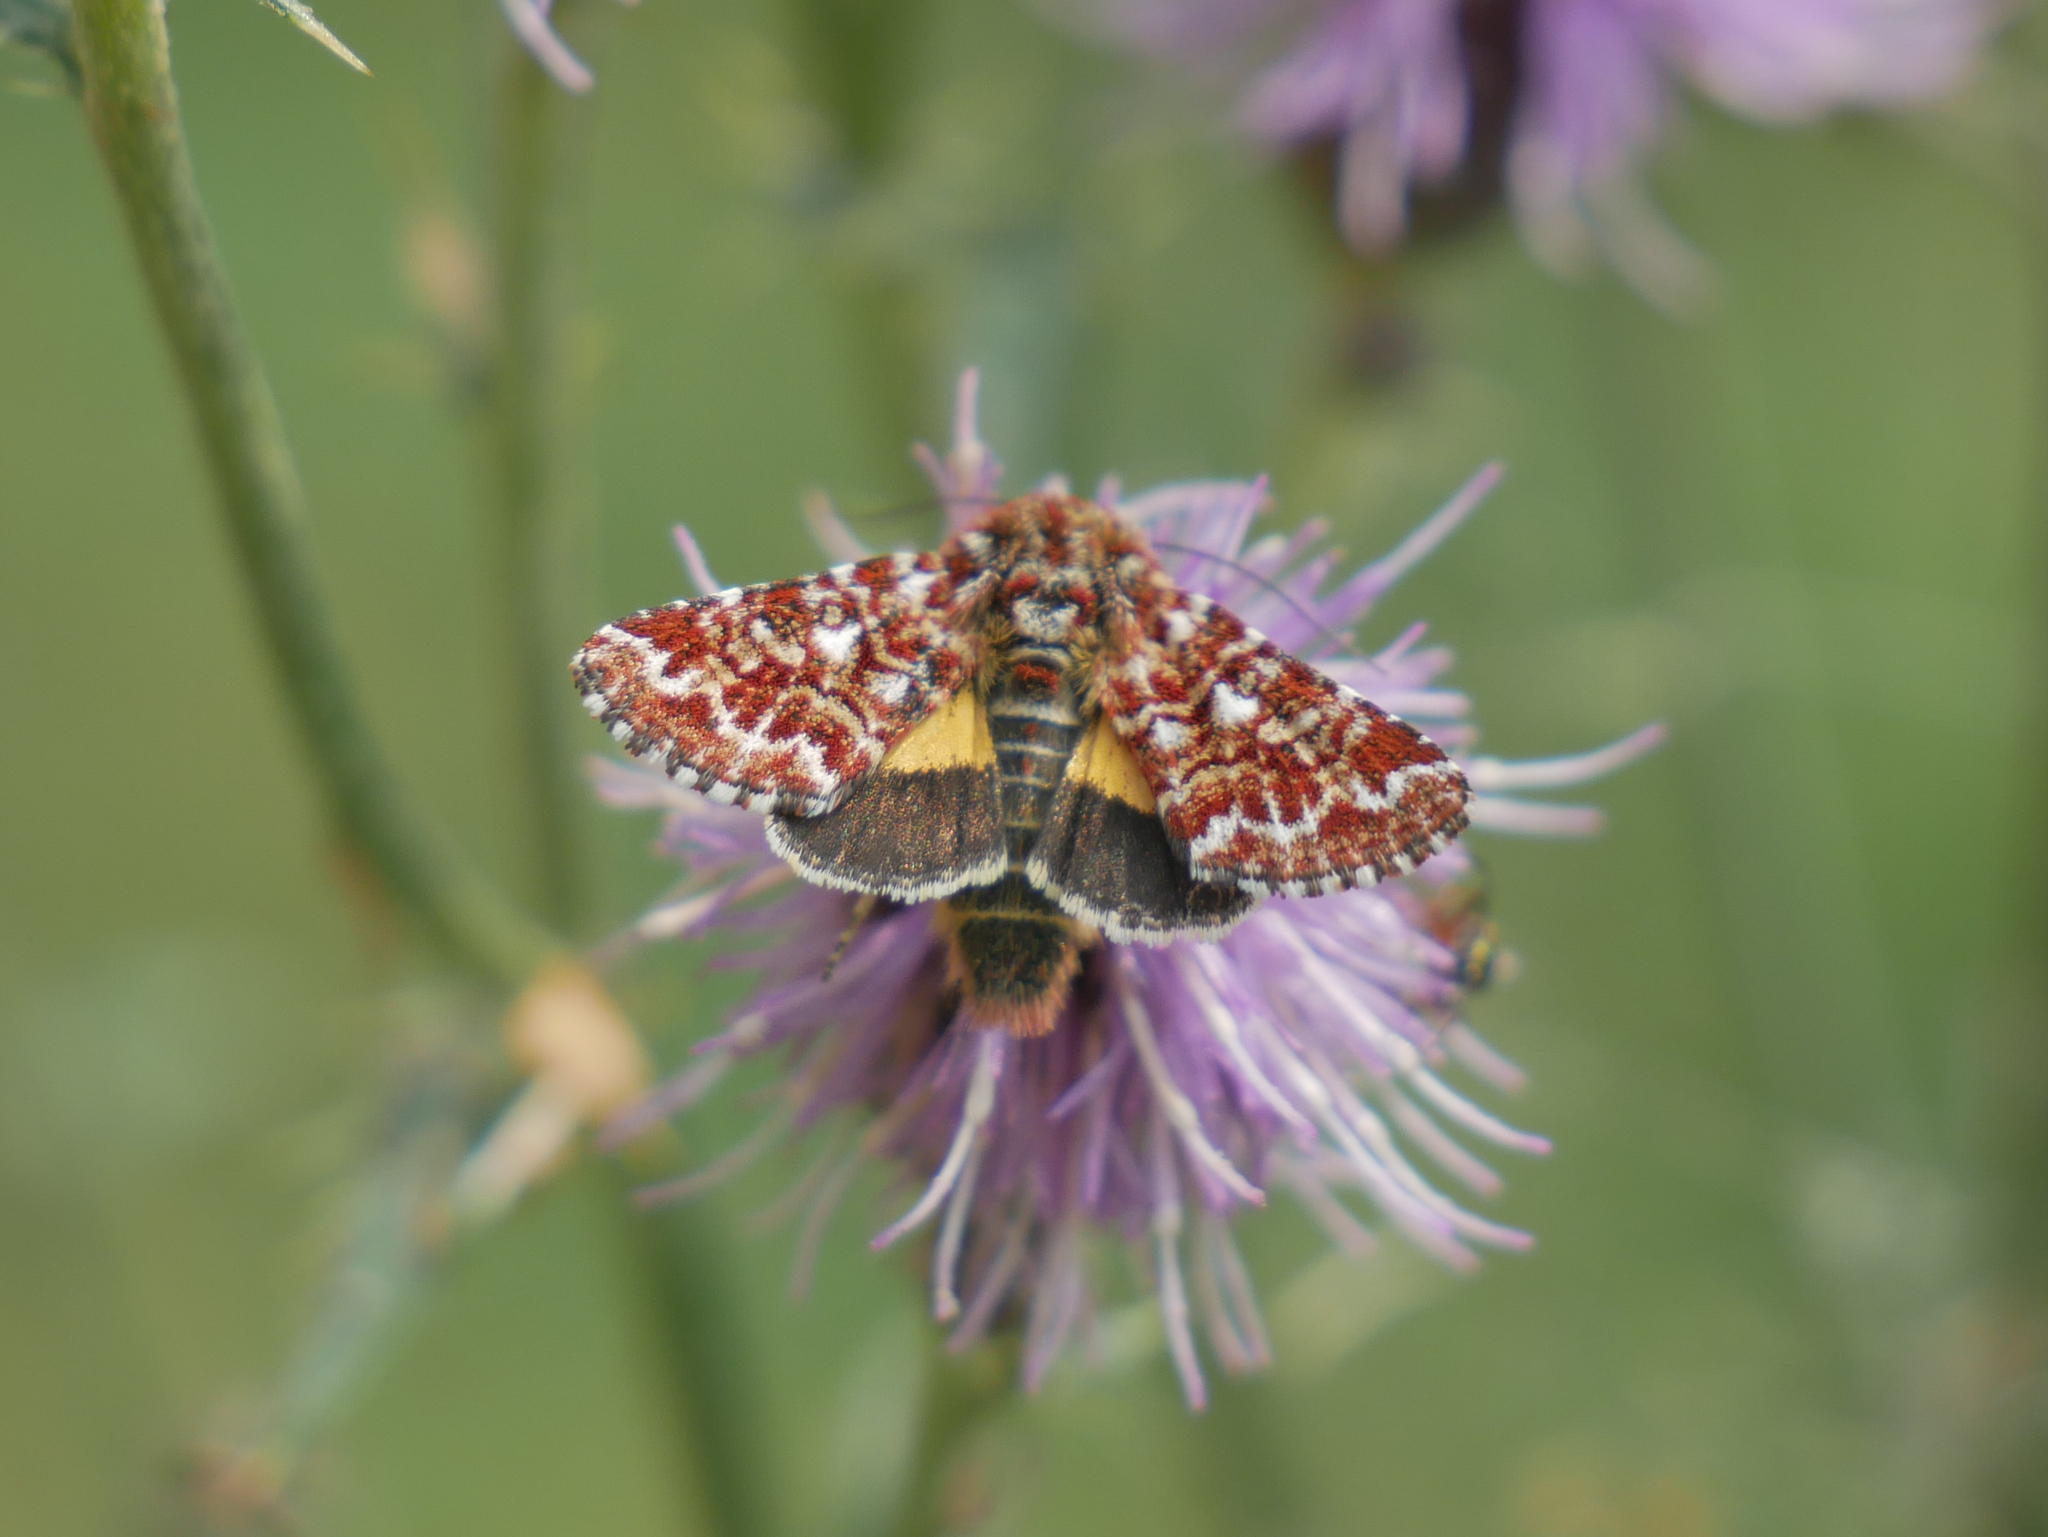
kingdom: Animalia
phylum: Arthropoda
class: Insecta
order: Lepidoptera
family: Noctuidae
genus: Anarta
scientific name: Anarta myrtilli
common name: Beautiful yellow underwing
